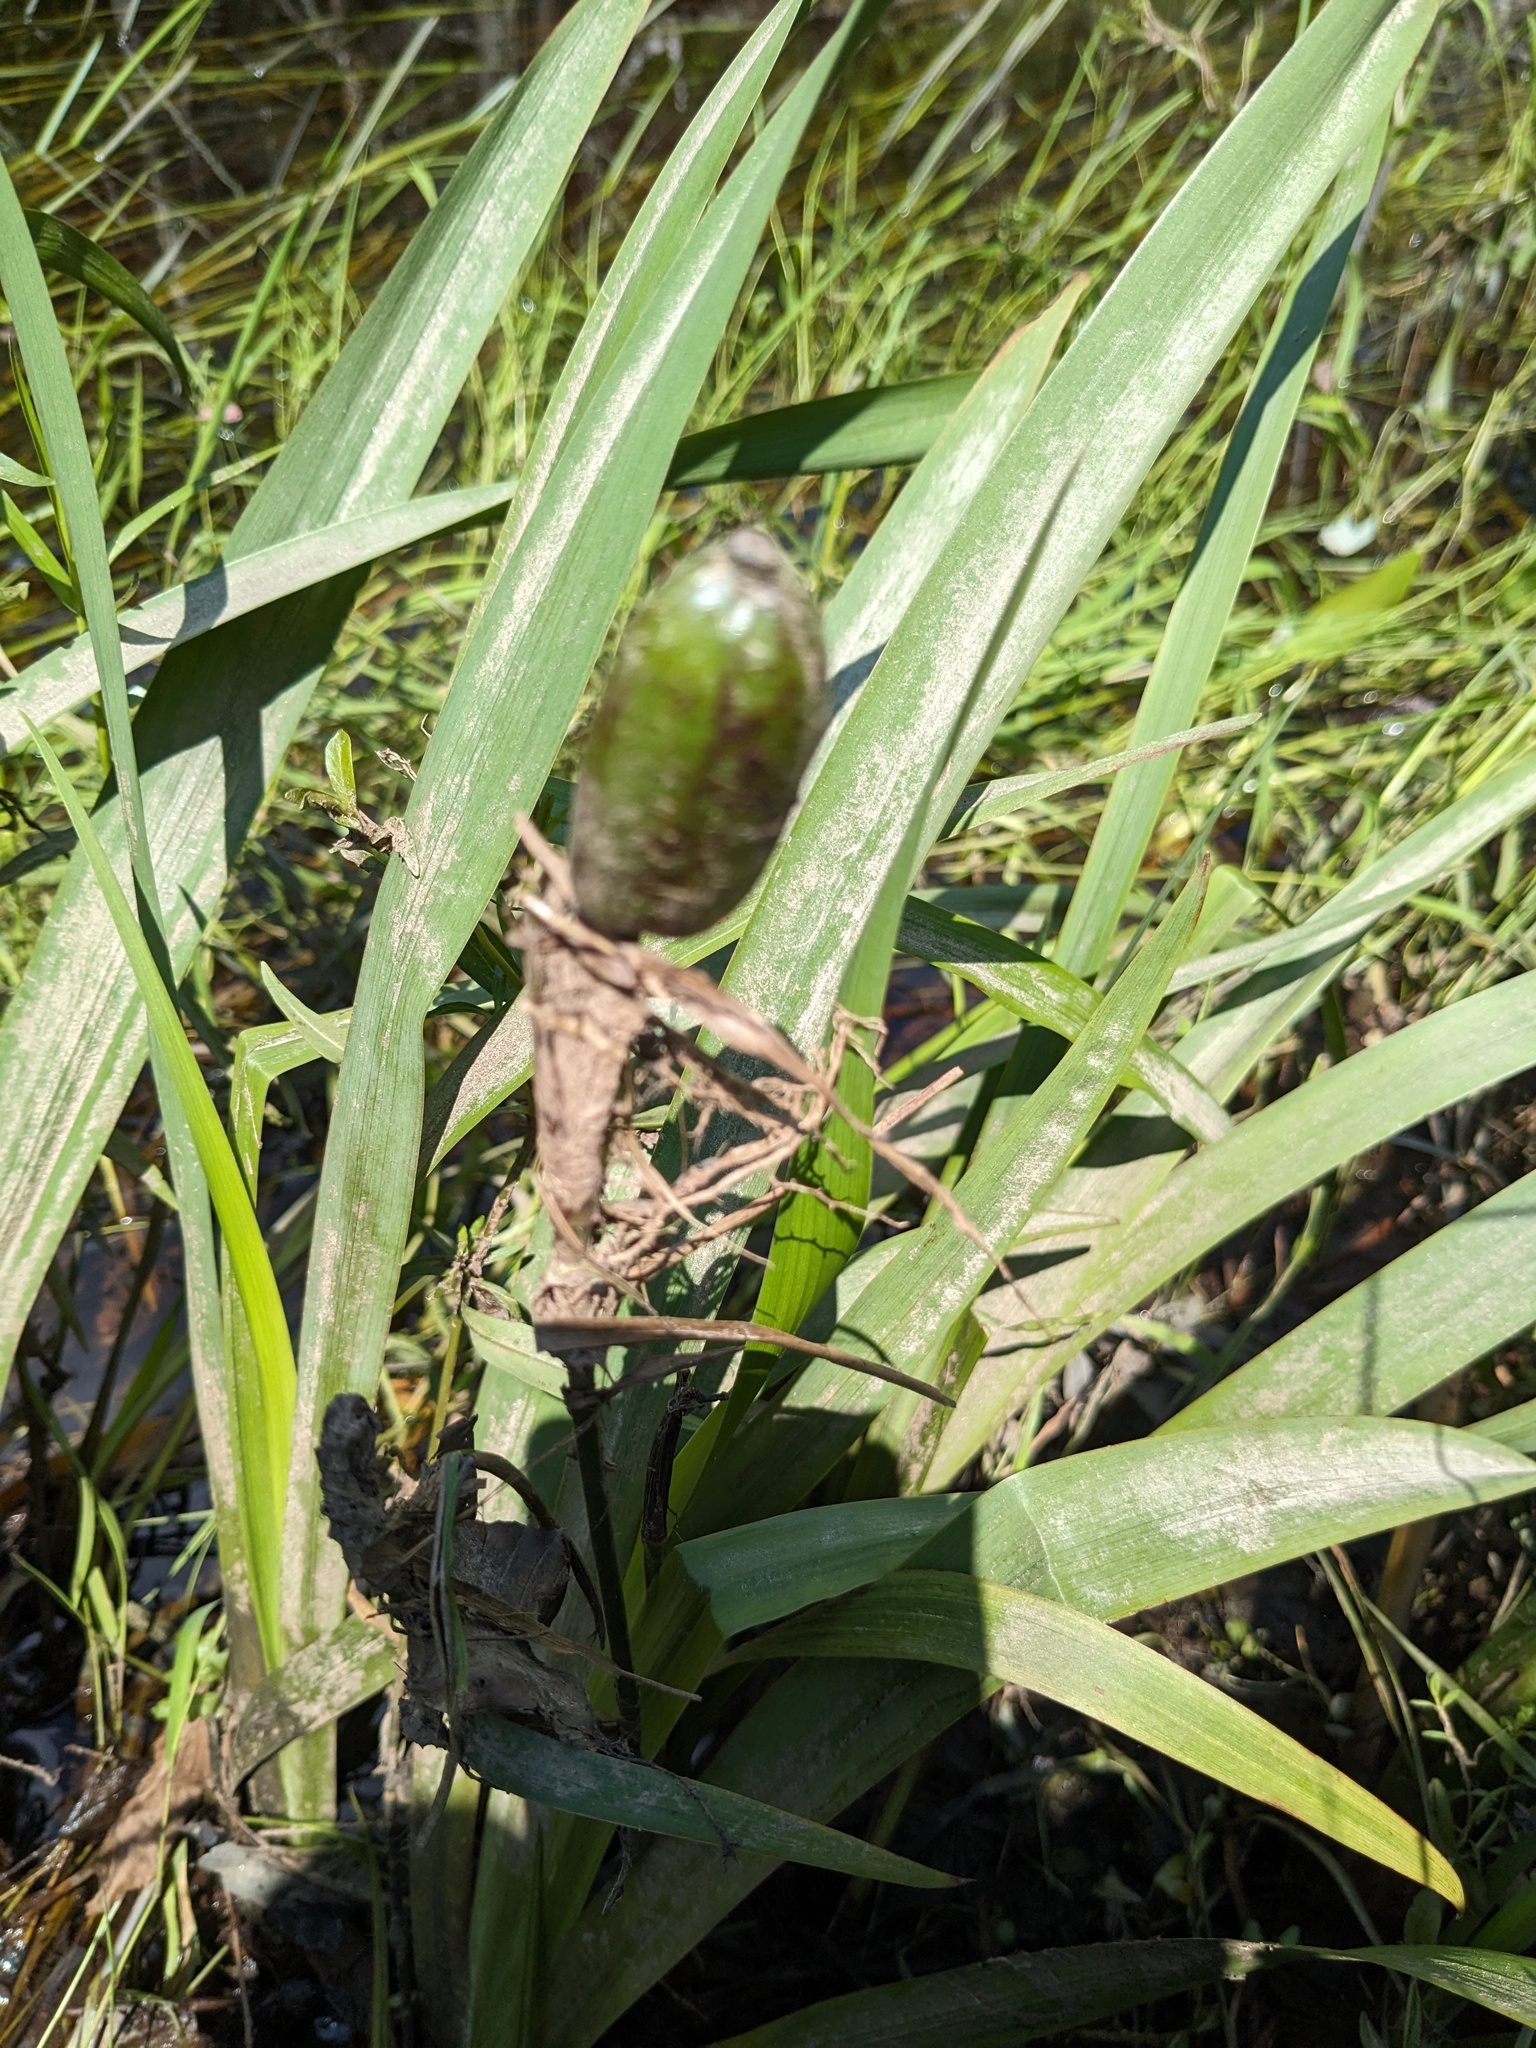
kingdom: Plantae
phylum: Tracheophyta
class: Liliopsida
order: Asparagales
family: Iridaceae
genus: Iris
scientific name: Iris versicolor
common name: Purple iris
